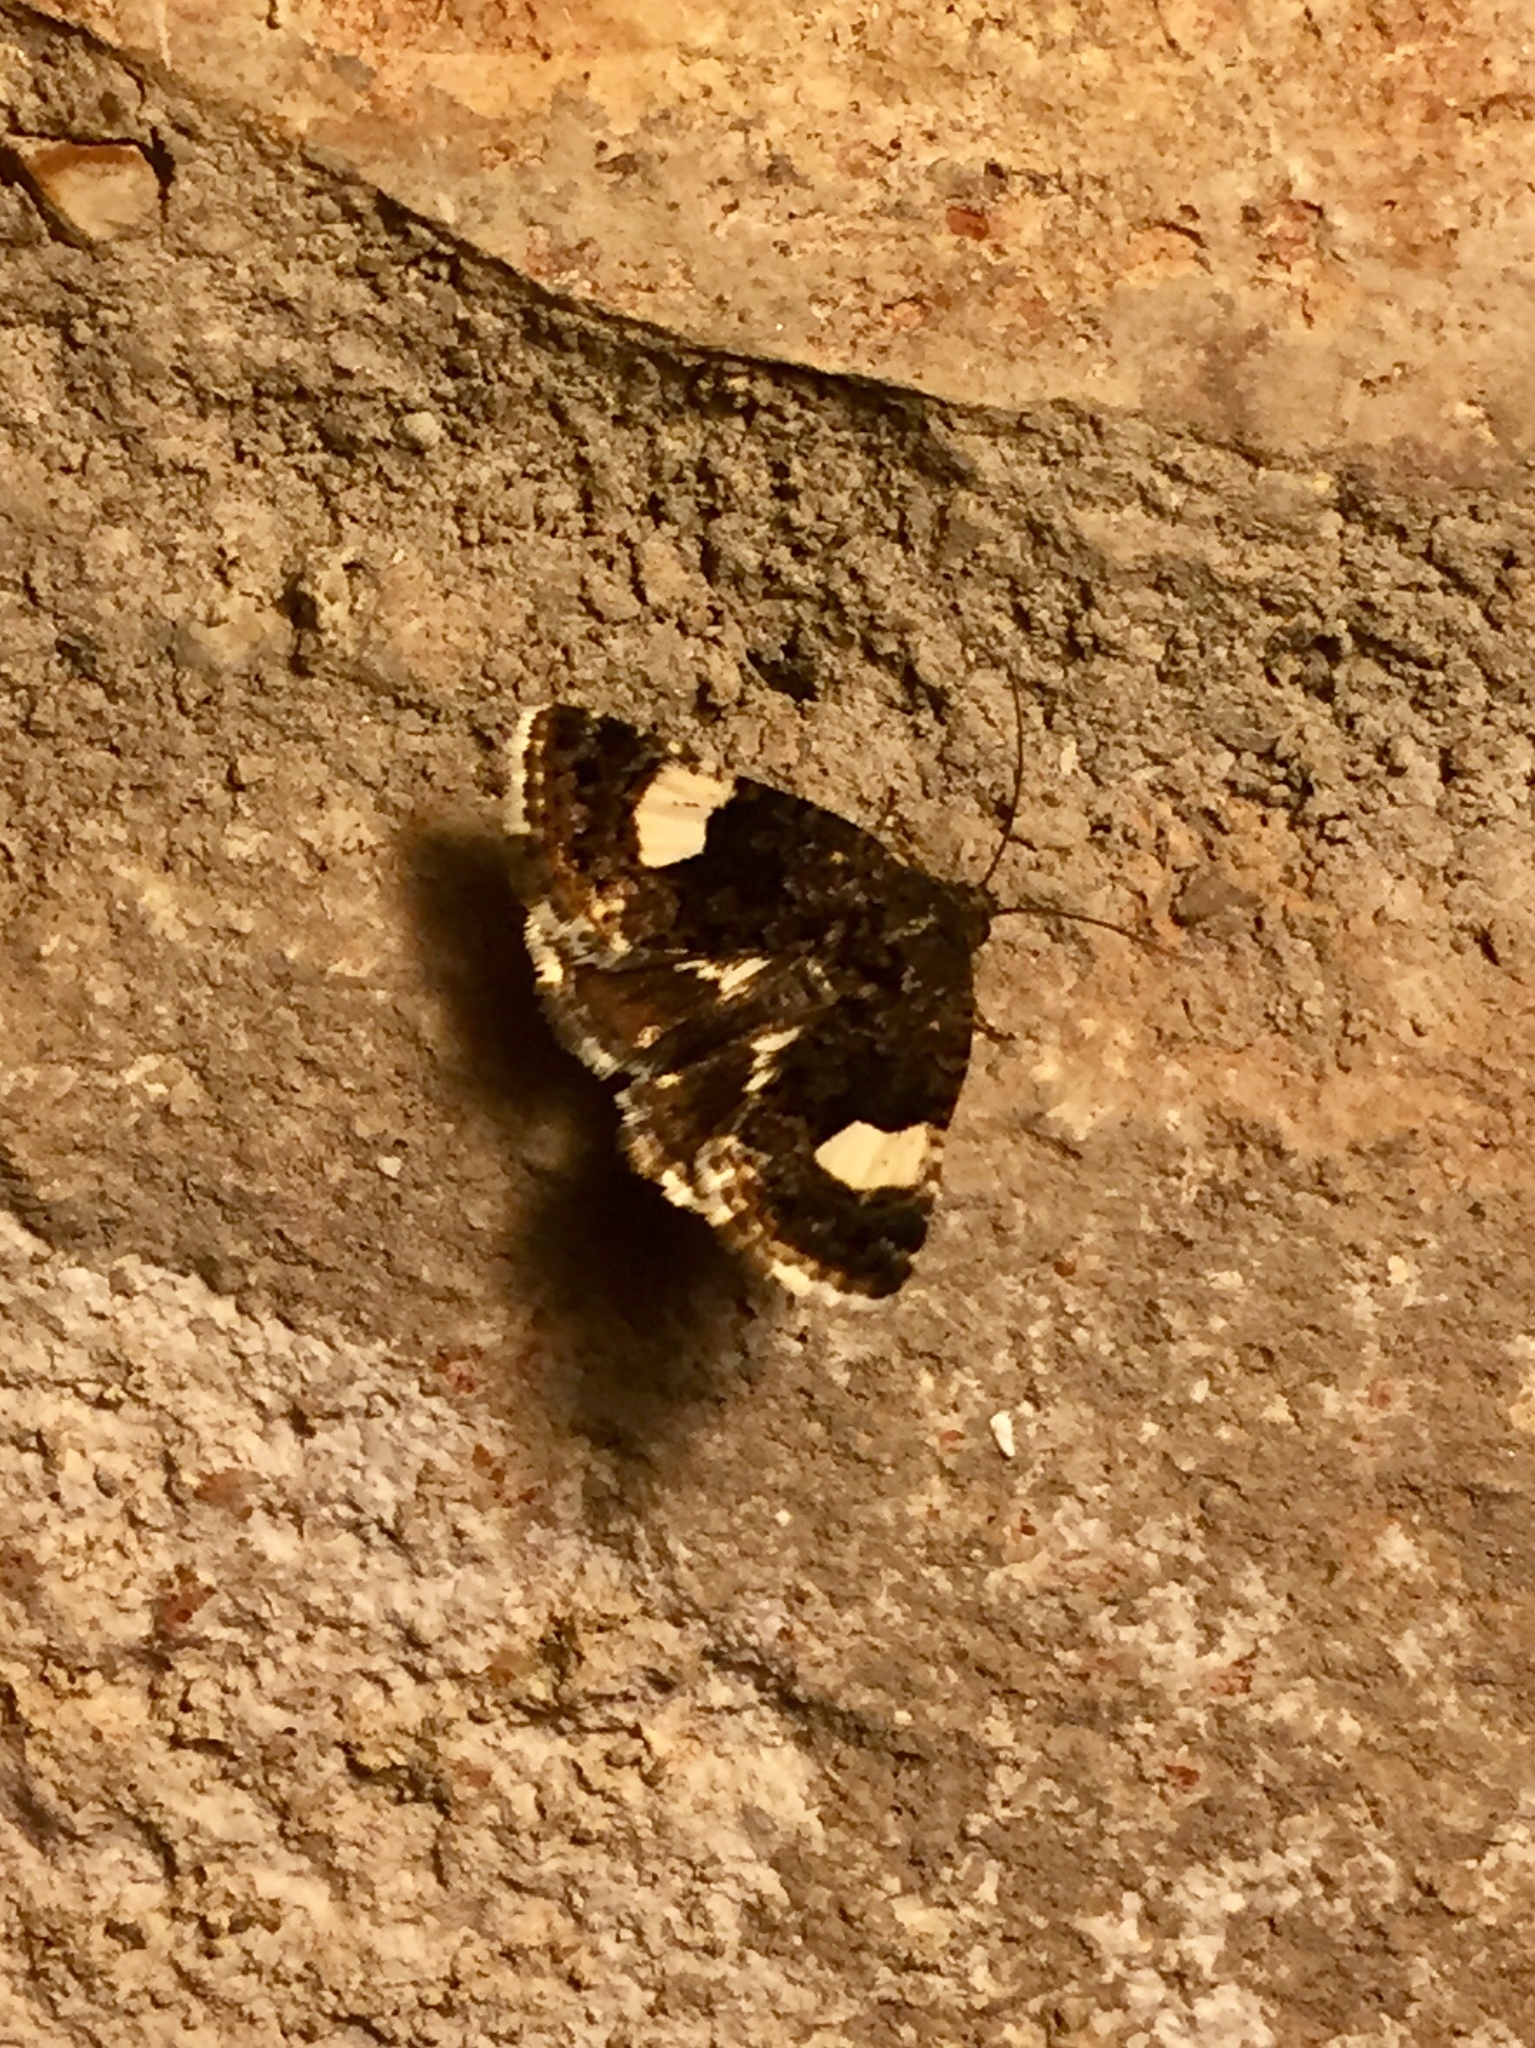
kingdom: Animalia
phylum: Arthropoda
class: Insecta
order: Lepidoptera
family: Erebidae
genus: Tyta
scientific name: Tyta luctuosa
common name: Four-spotted
